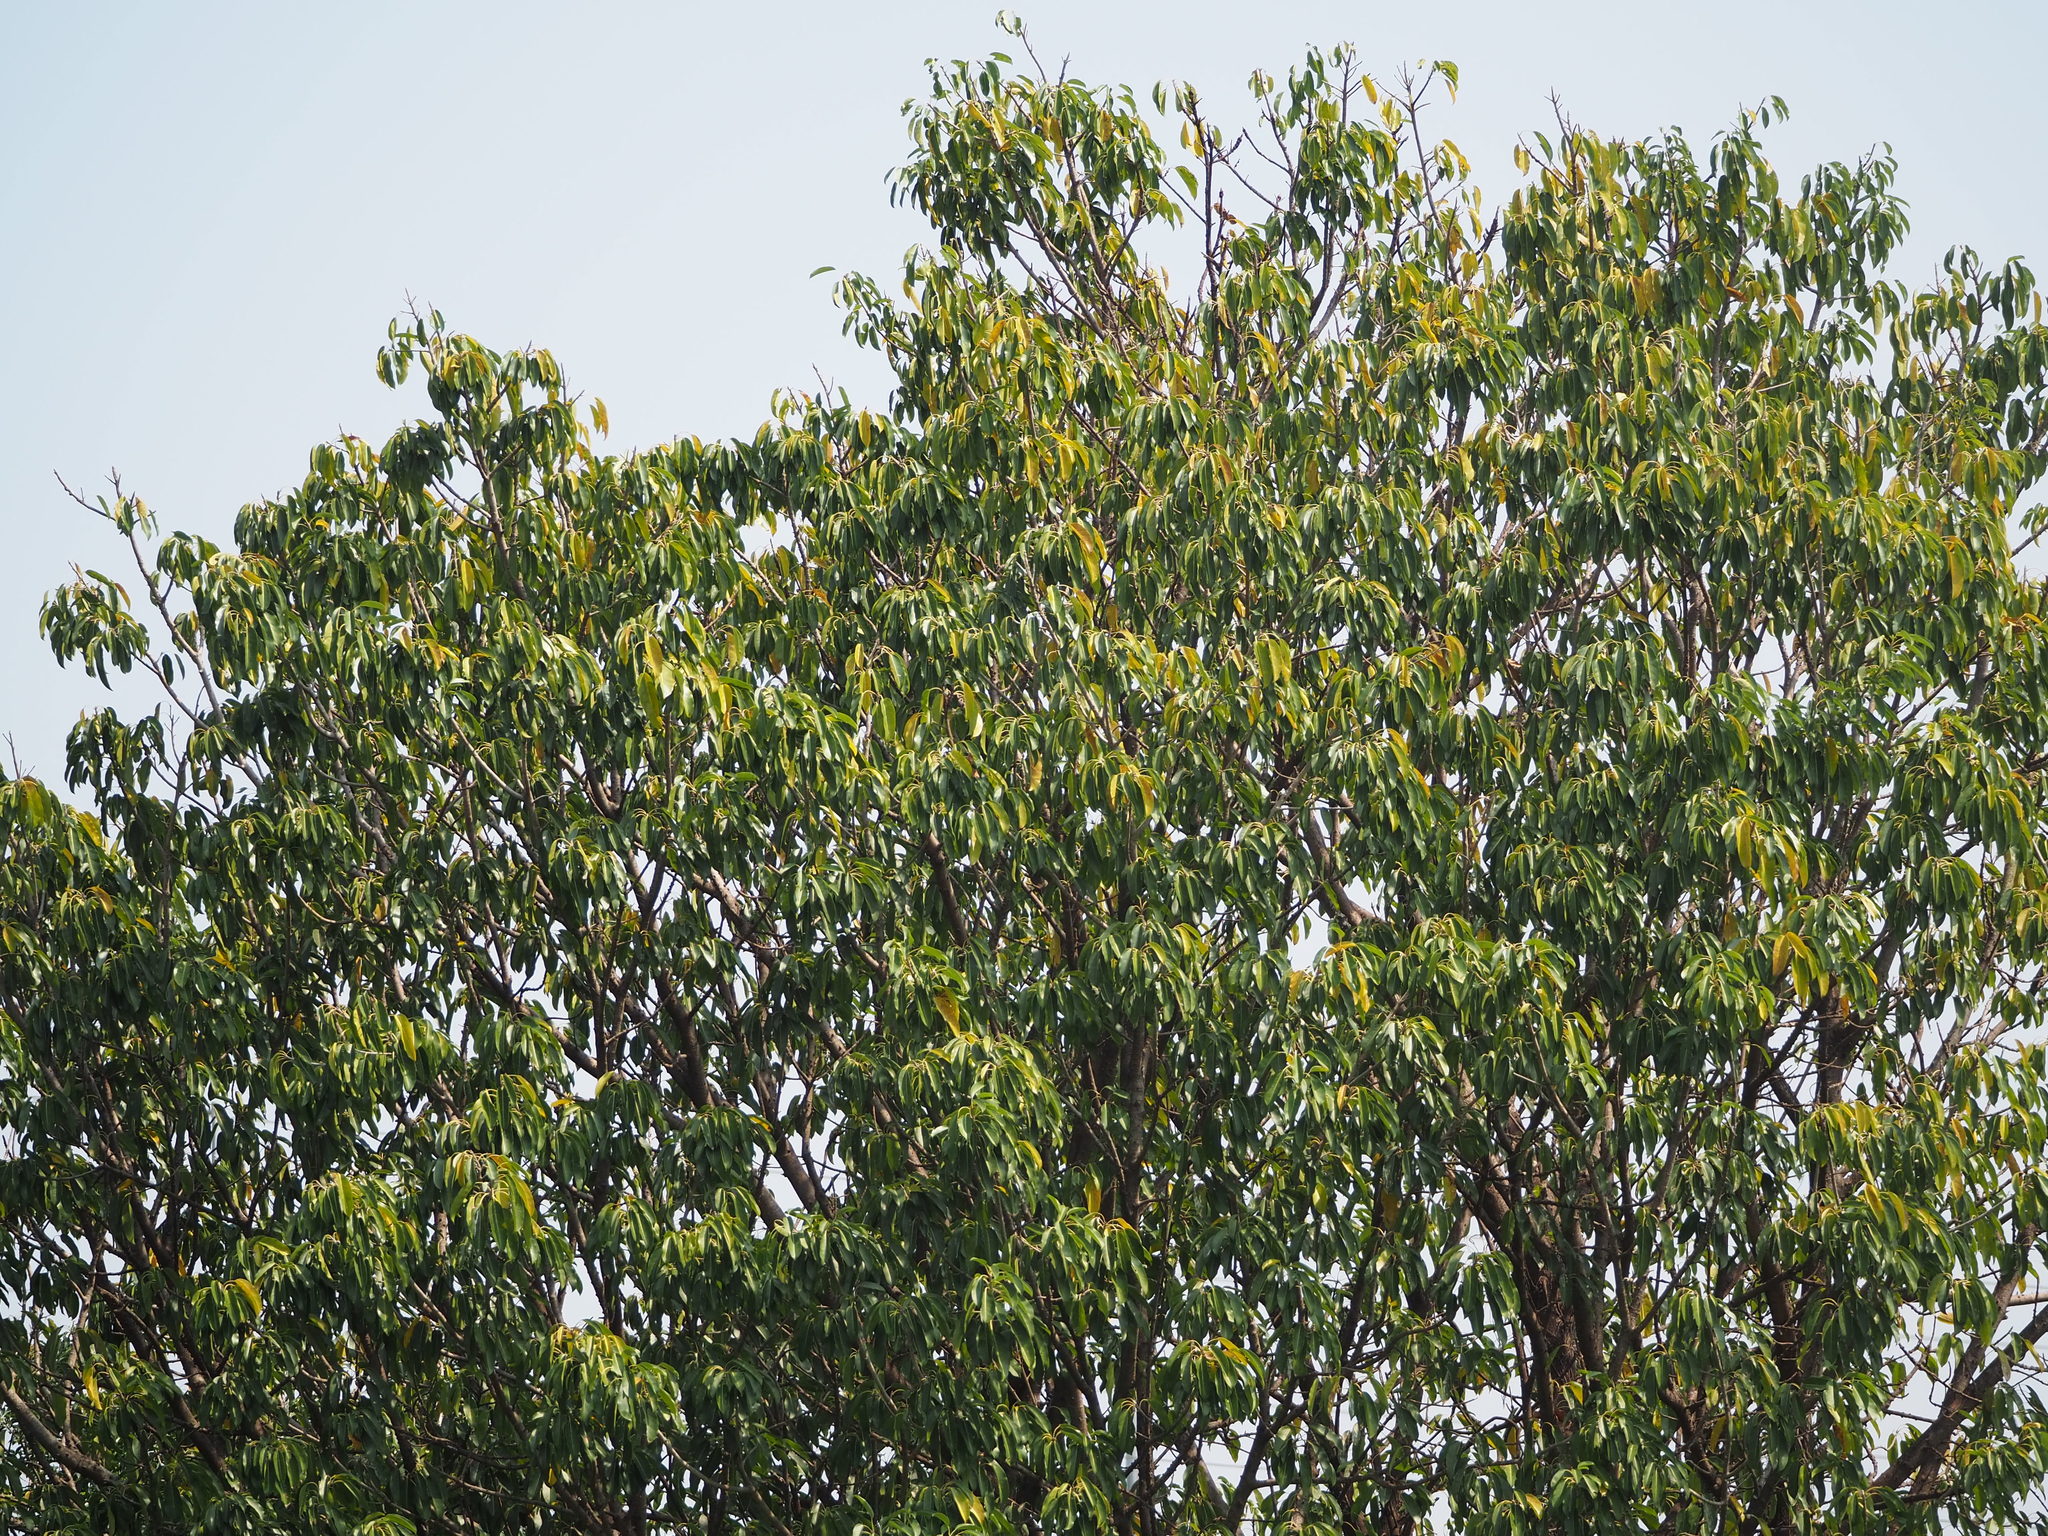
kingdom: Plantae
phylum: Tracheophyta
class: Magnoliopsida
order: Rosales
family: Moraceae
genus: Ficus
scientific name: Ficus subpisocarpa
